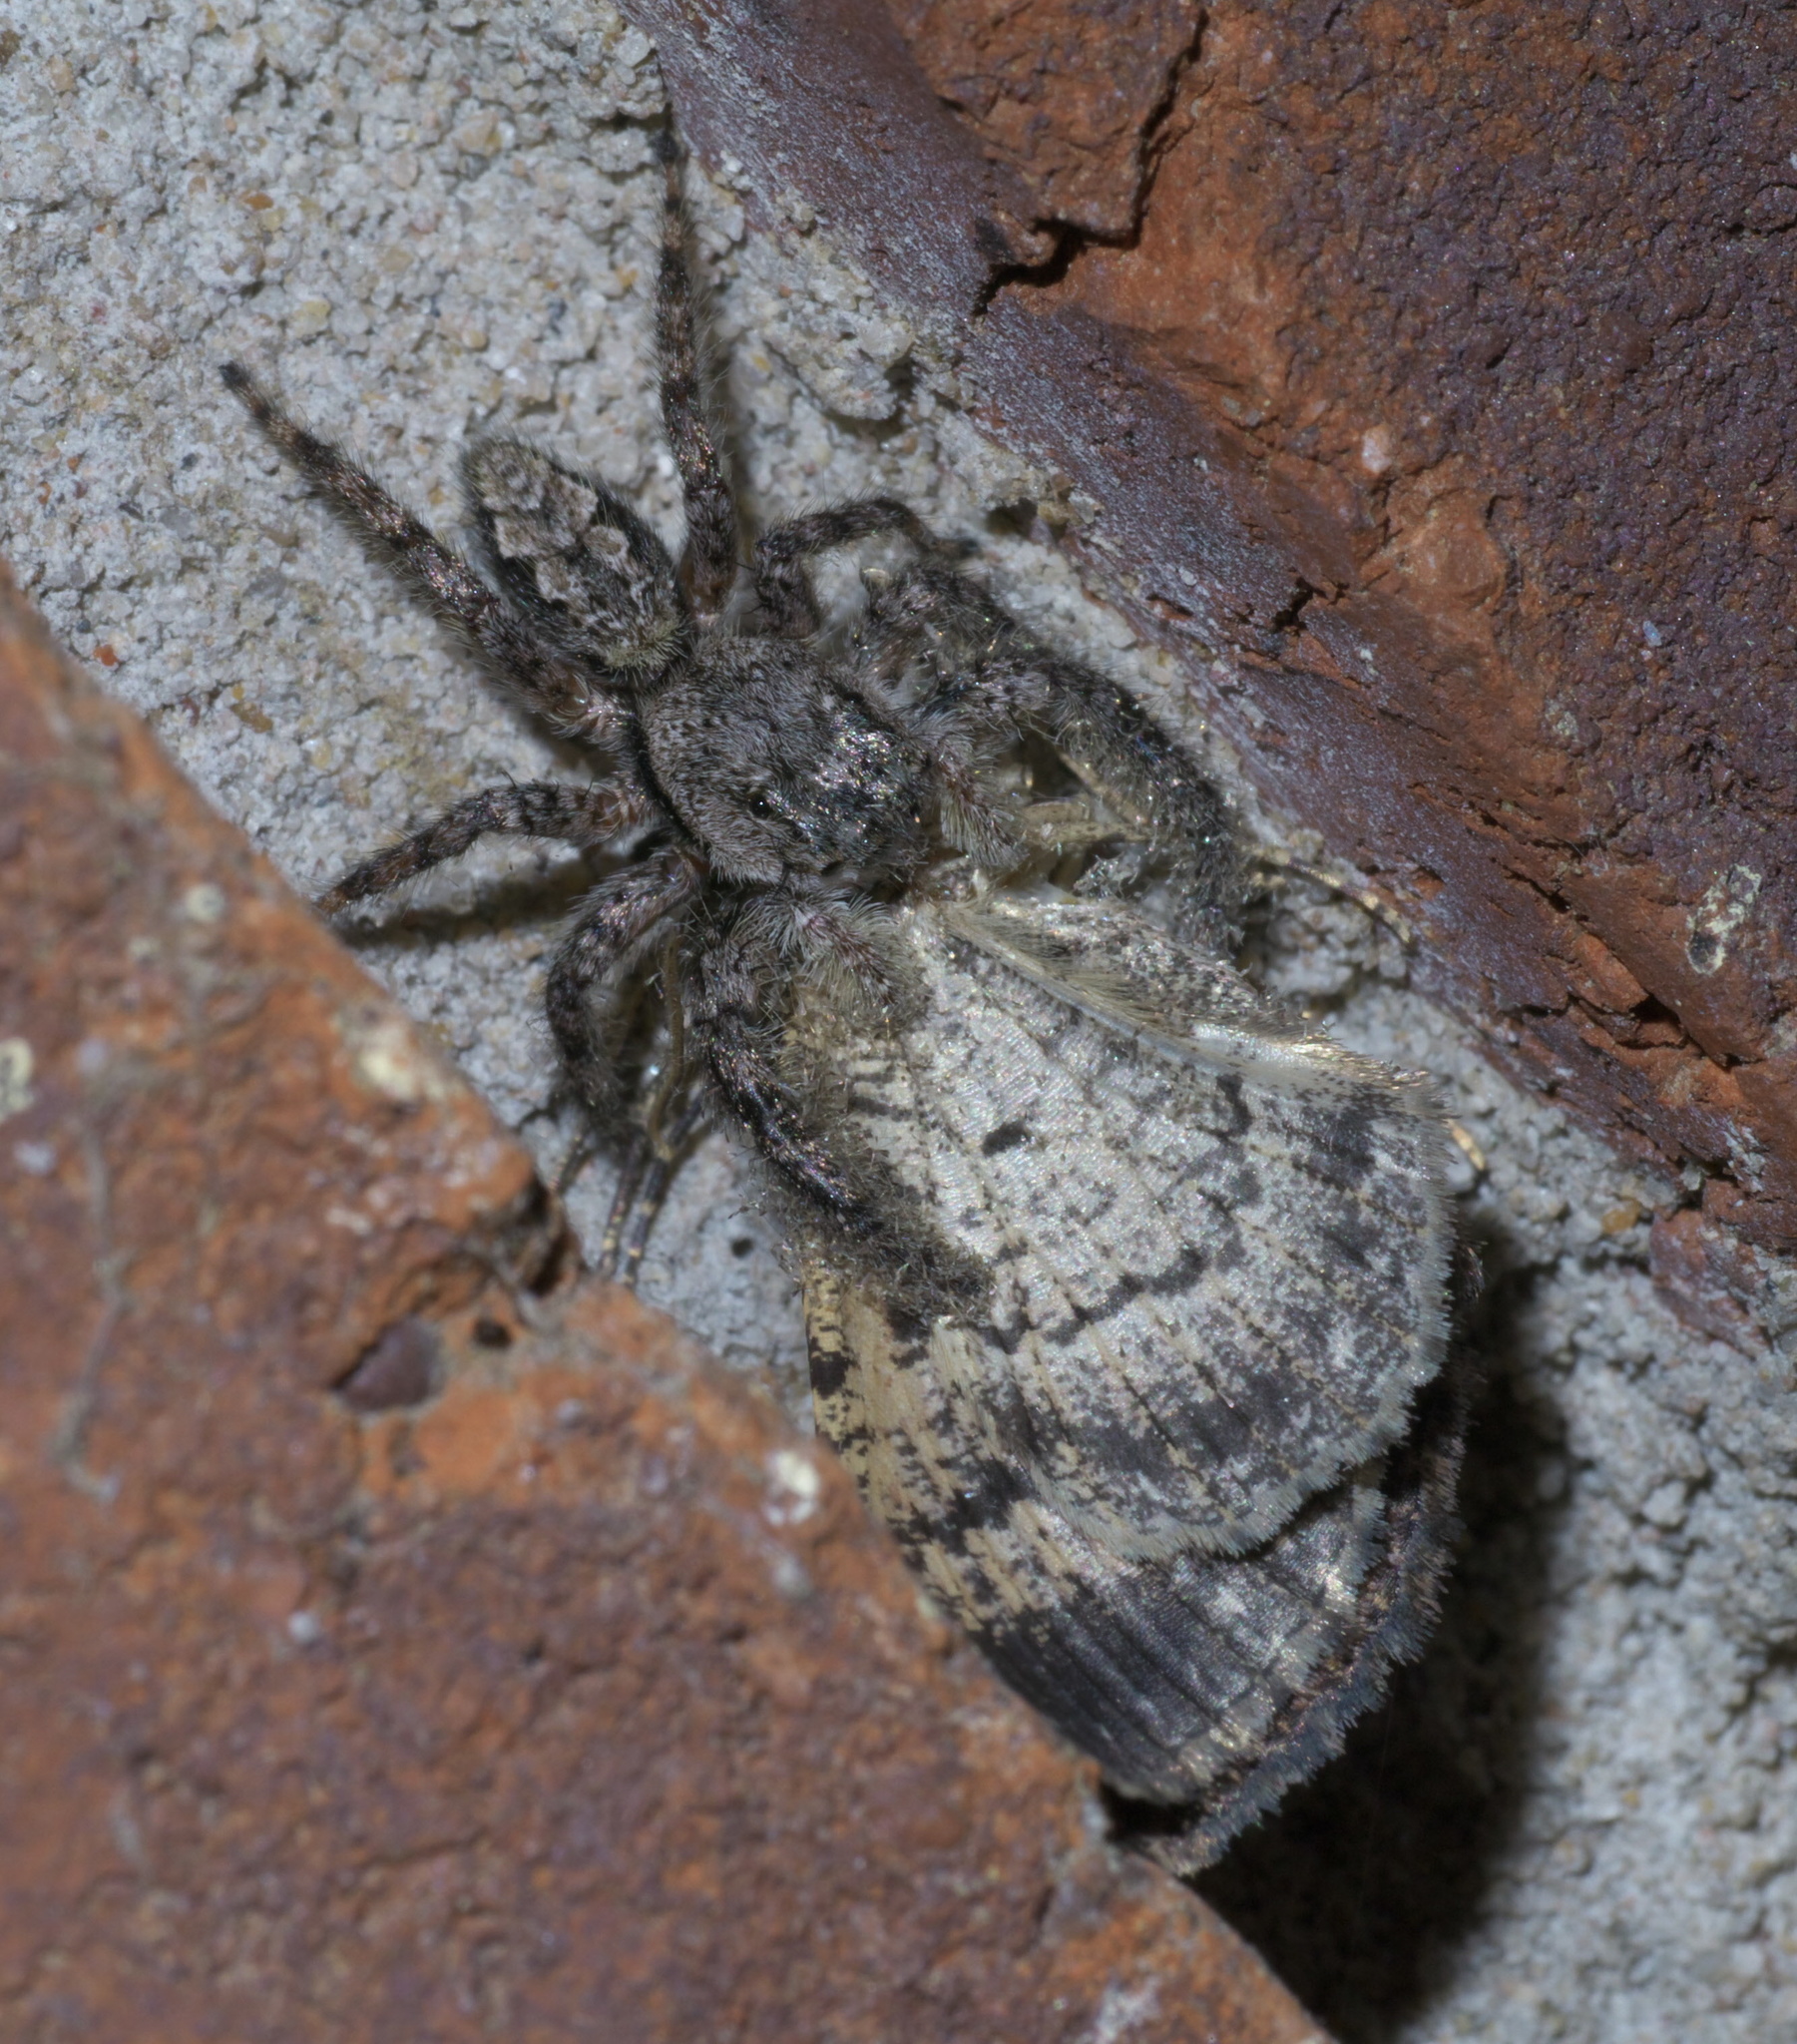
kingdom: Animalia
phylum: Arthropoda
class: Arachnida
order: Araneae
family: Salticidae
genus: Platycryptus
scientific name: Platycryptus undatus
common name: Tan jumping spider
